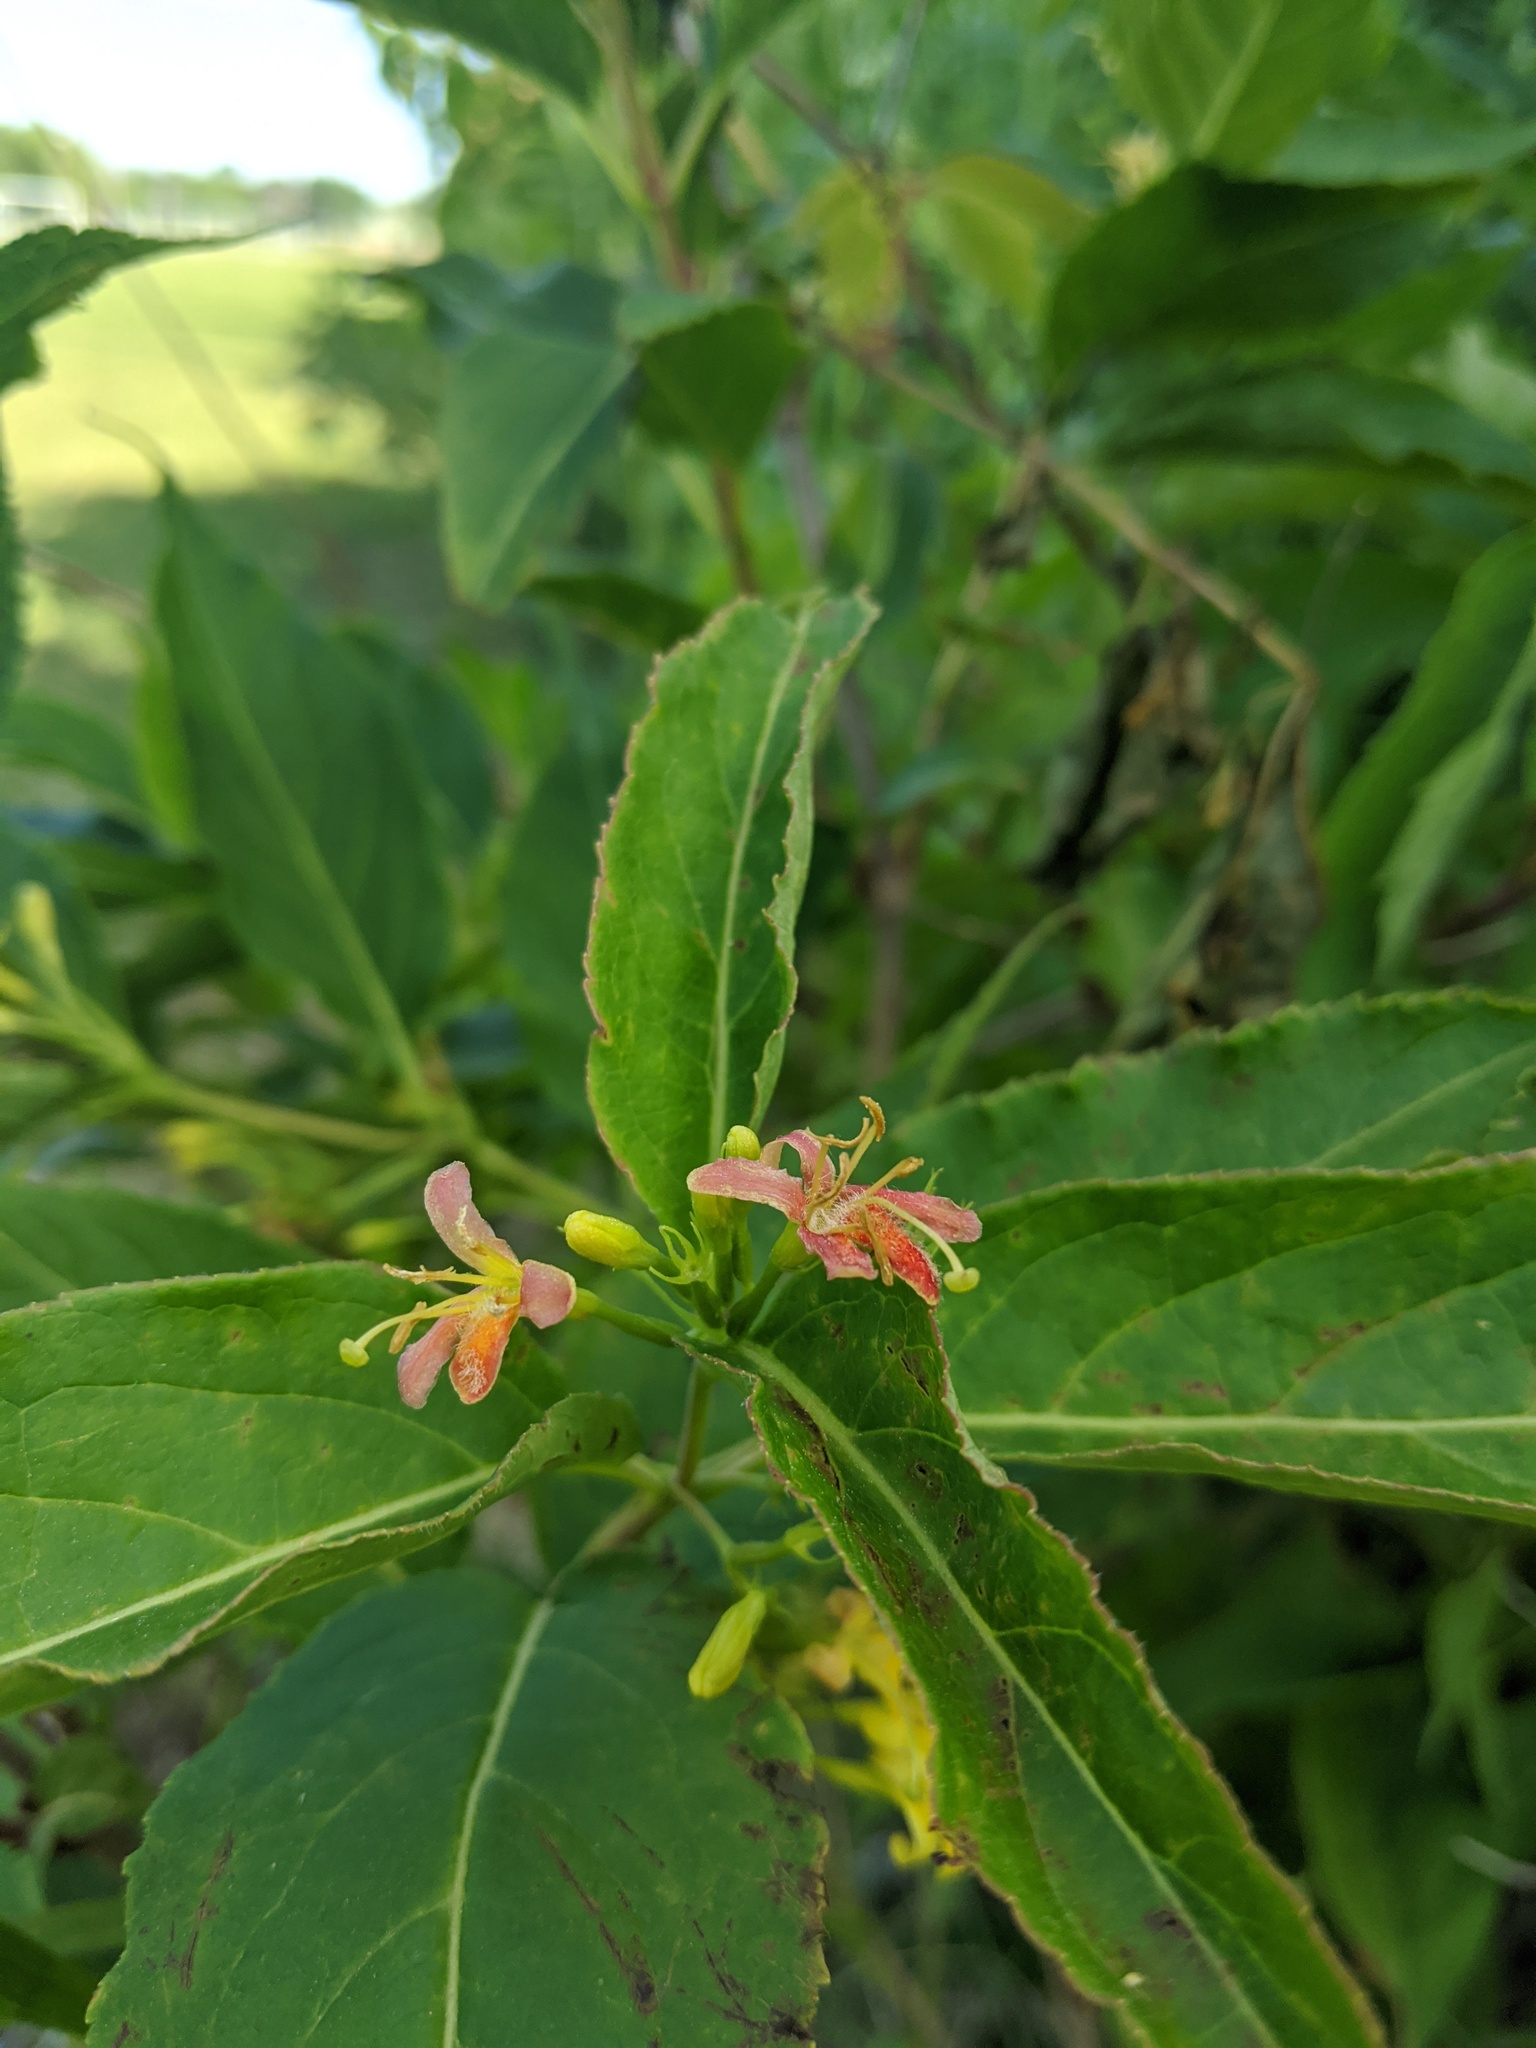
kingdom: Plantae
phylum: Tracheophyta
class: Magnoliopsida
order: Dipsacales
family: Caprifoliaceae
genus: Diervilla
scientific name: Diervilla lonicera
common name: Bush-honeysuckle
